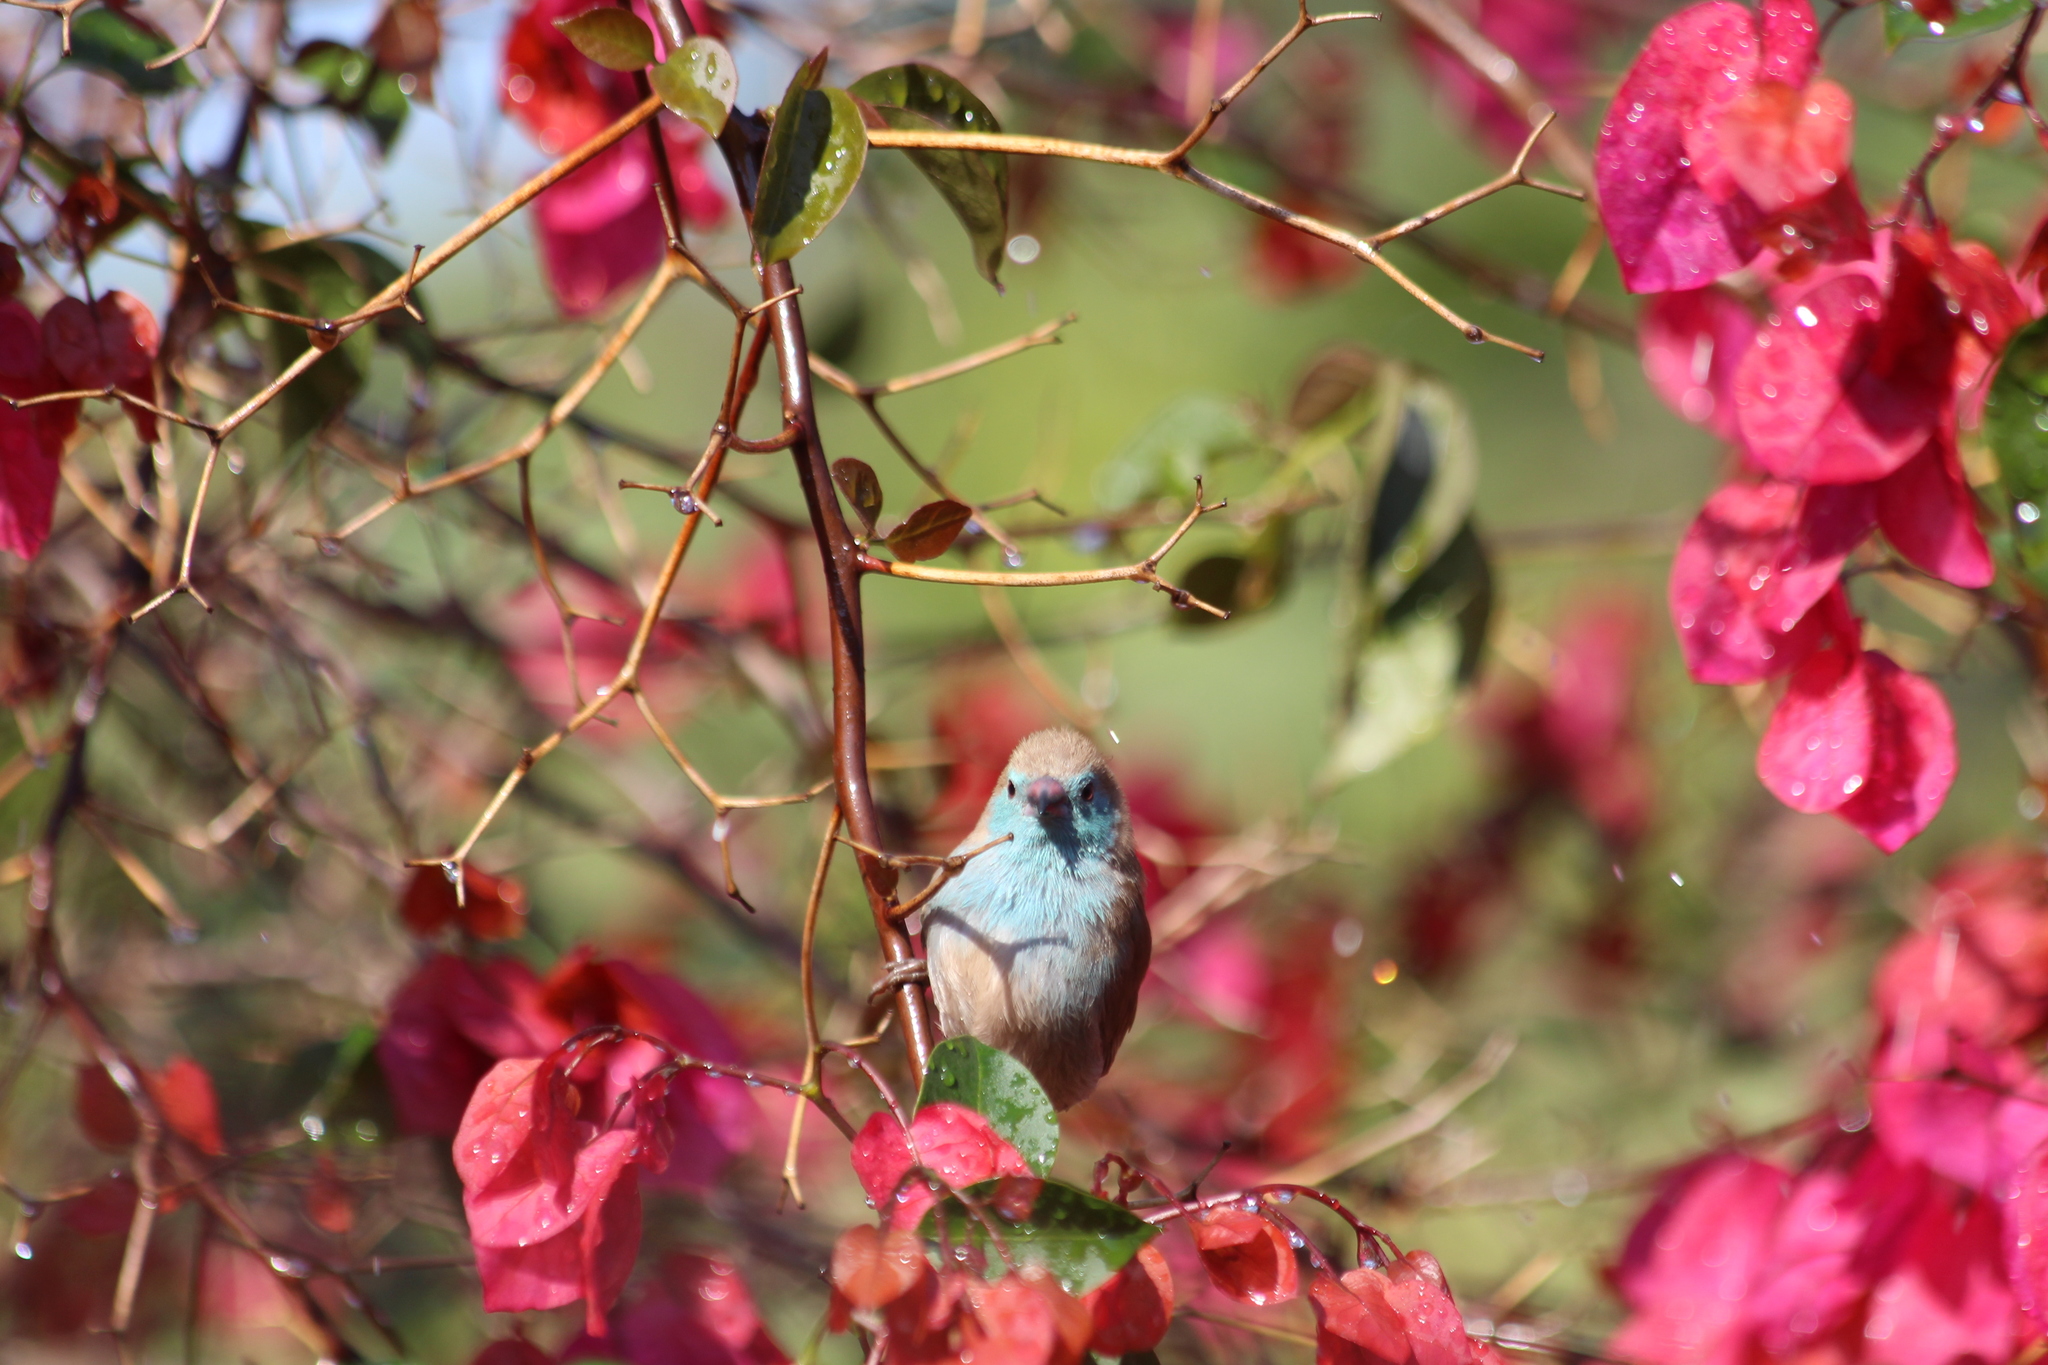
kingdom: Animalia
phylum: Chordata
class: Aves
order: Passeriformes
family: Estrildidae
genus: Uraeginthus
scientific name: Uraeginthus angolensis
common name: Blue waxbill
